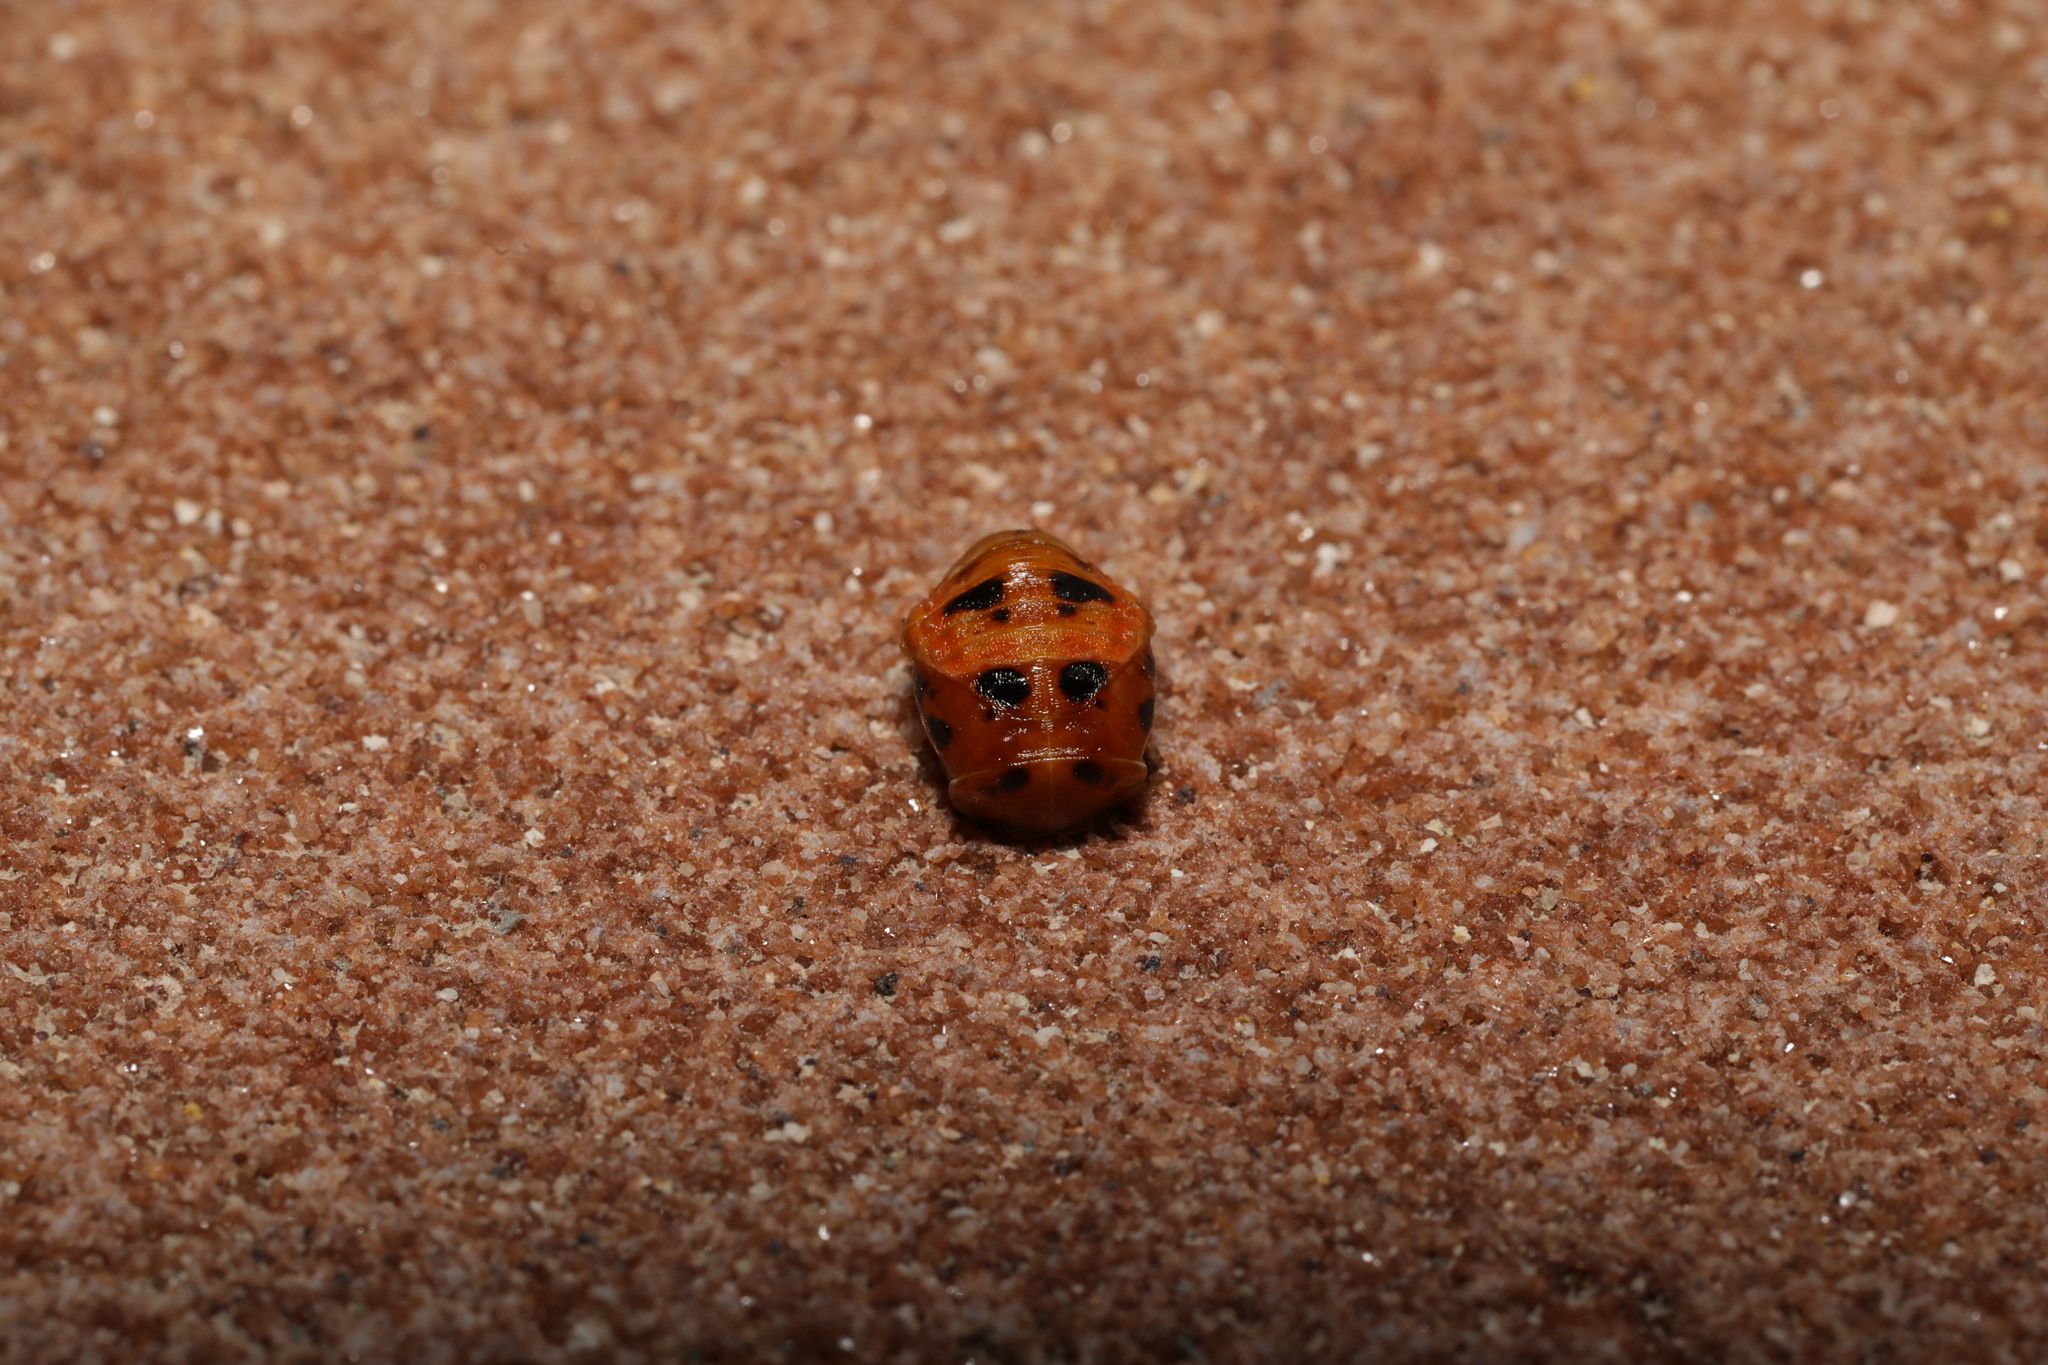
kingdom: Animalia
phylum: Arthropoda
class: Insecta
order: Coleoptera
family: Coccinellidae
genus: Harmonia
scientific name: Harmonia axyridis
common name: Harlequin ladybird
